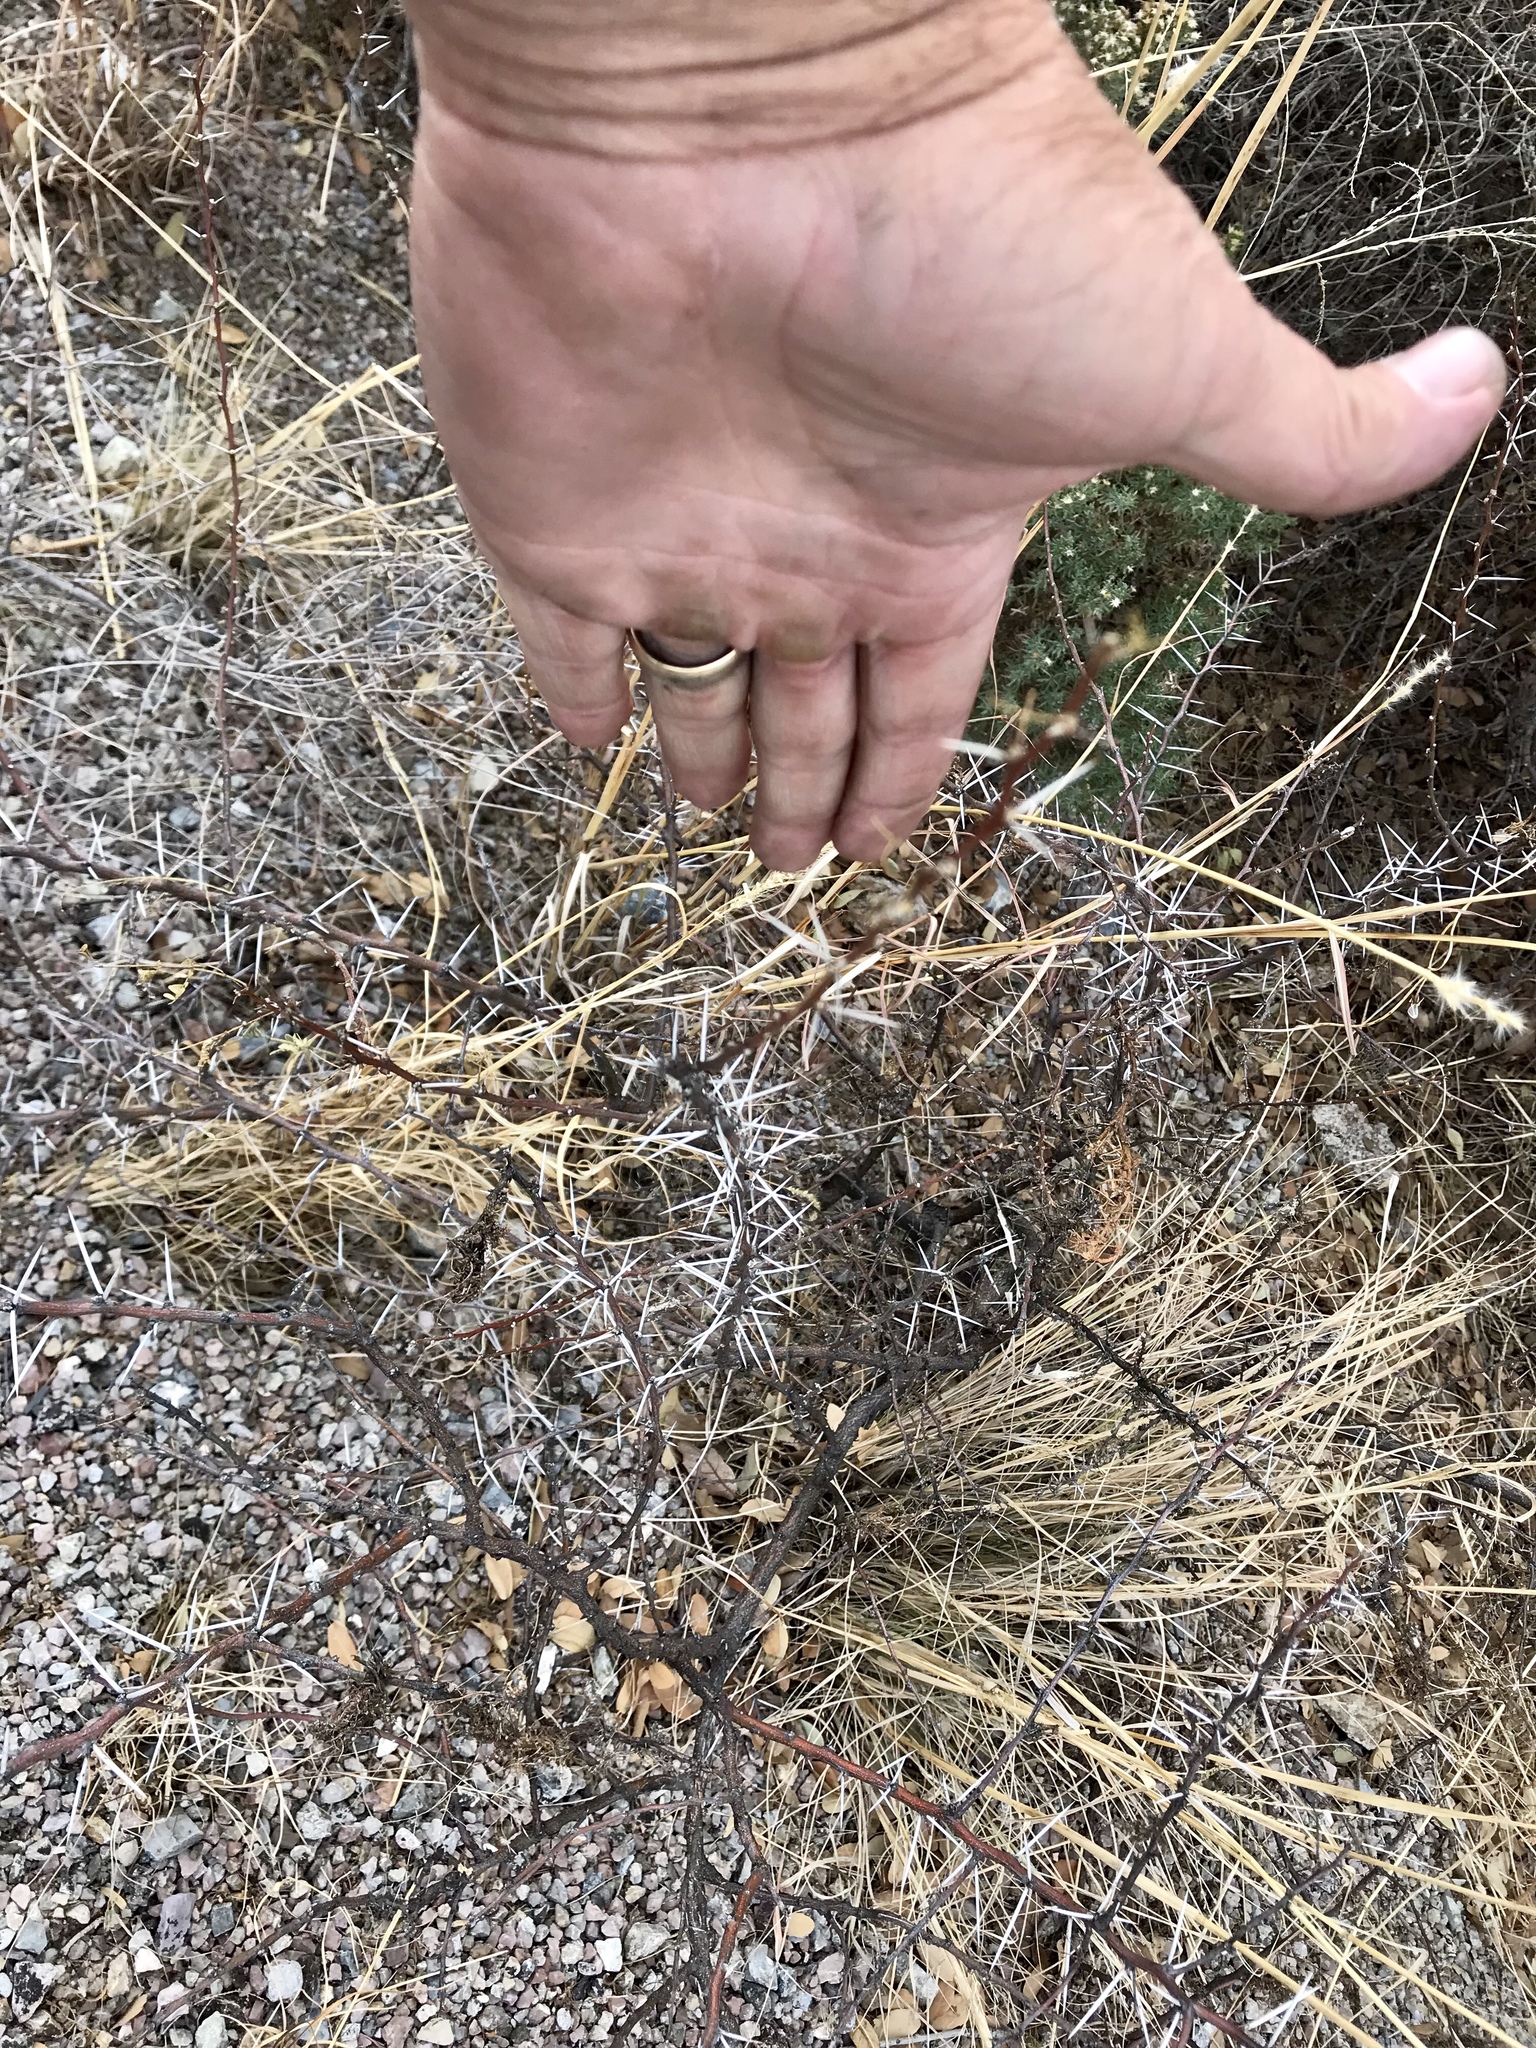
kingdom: Plantae
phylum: Tracheophyta
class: Magnoliopsida
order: Fabales
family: Fabaceae
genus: Vachellia
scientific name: Vachellia constricta
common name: Mescat acacia
